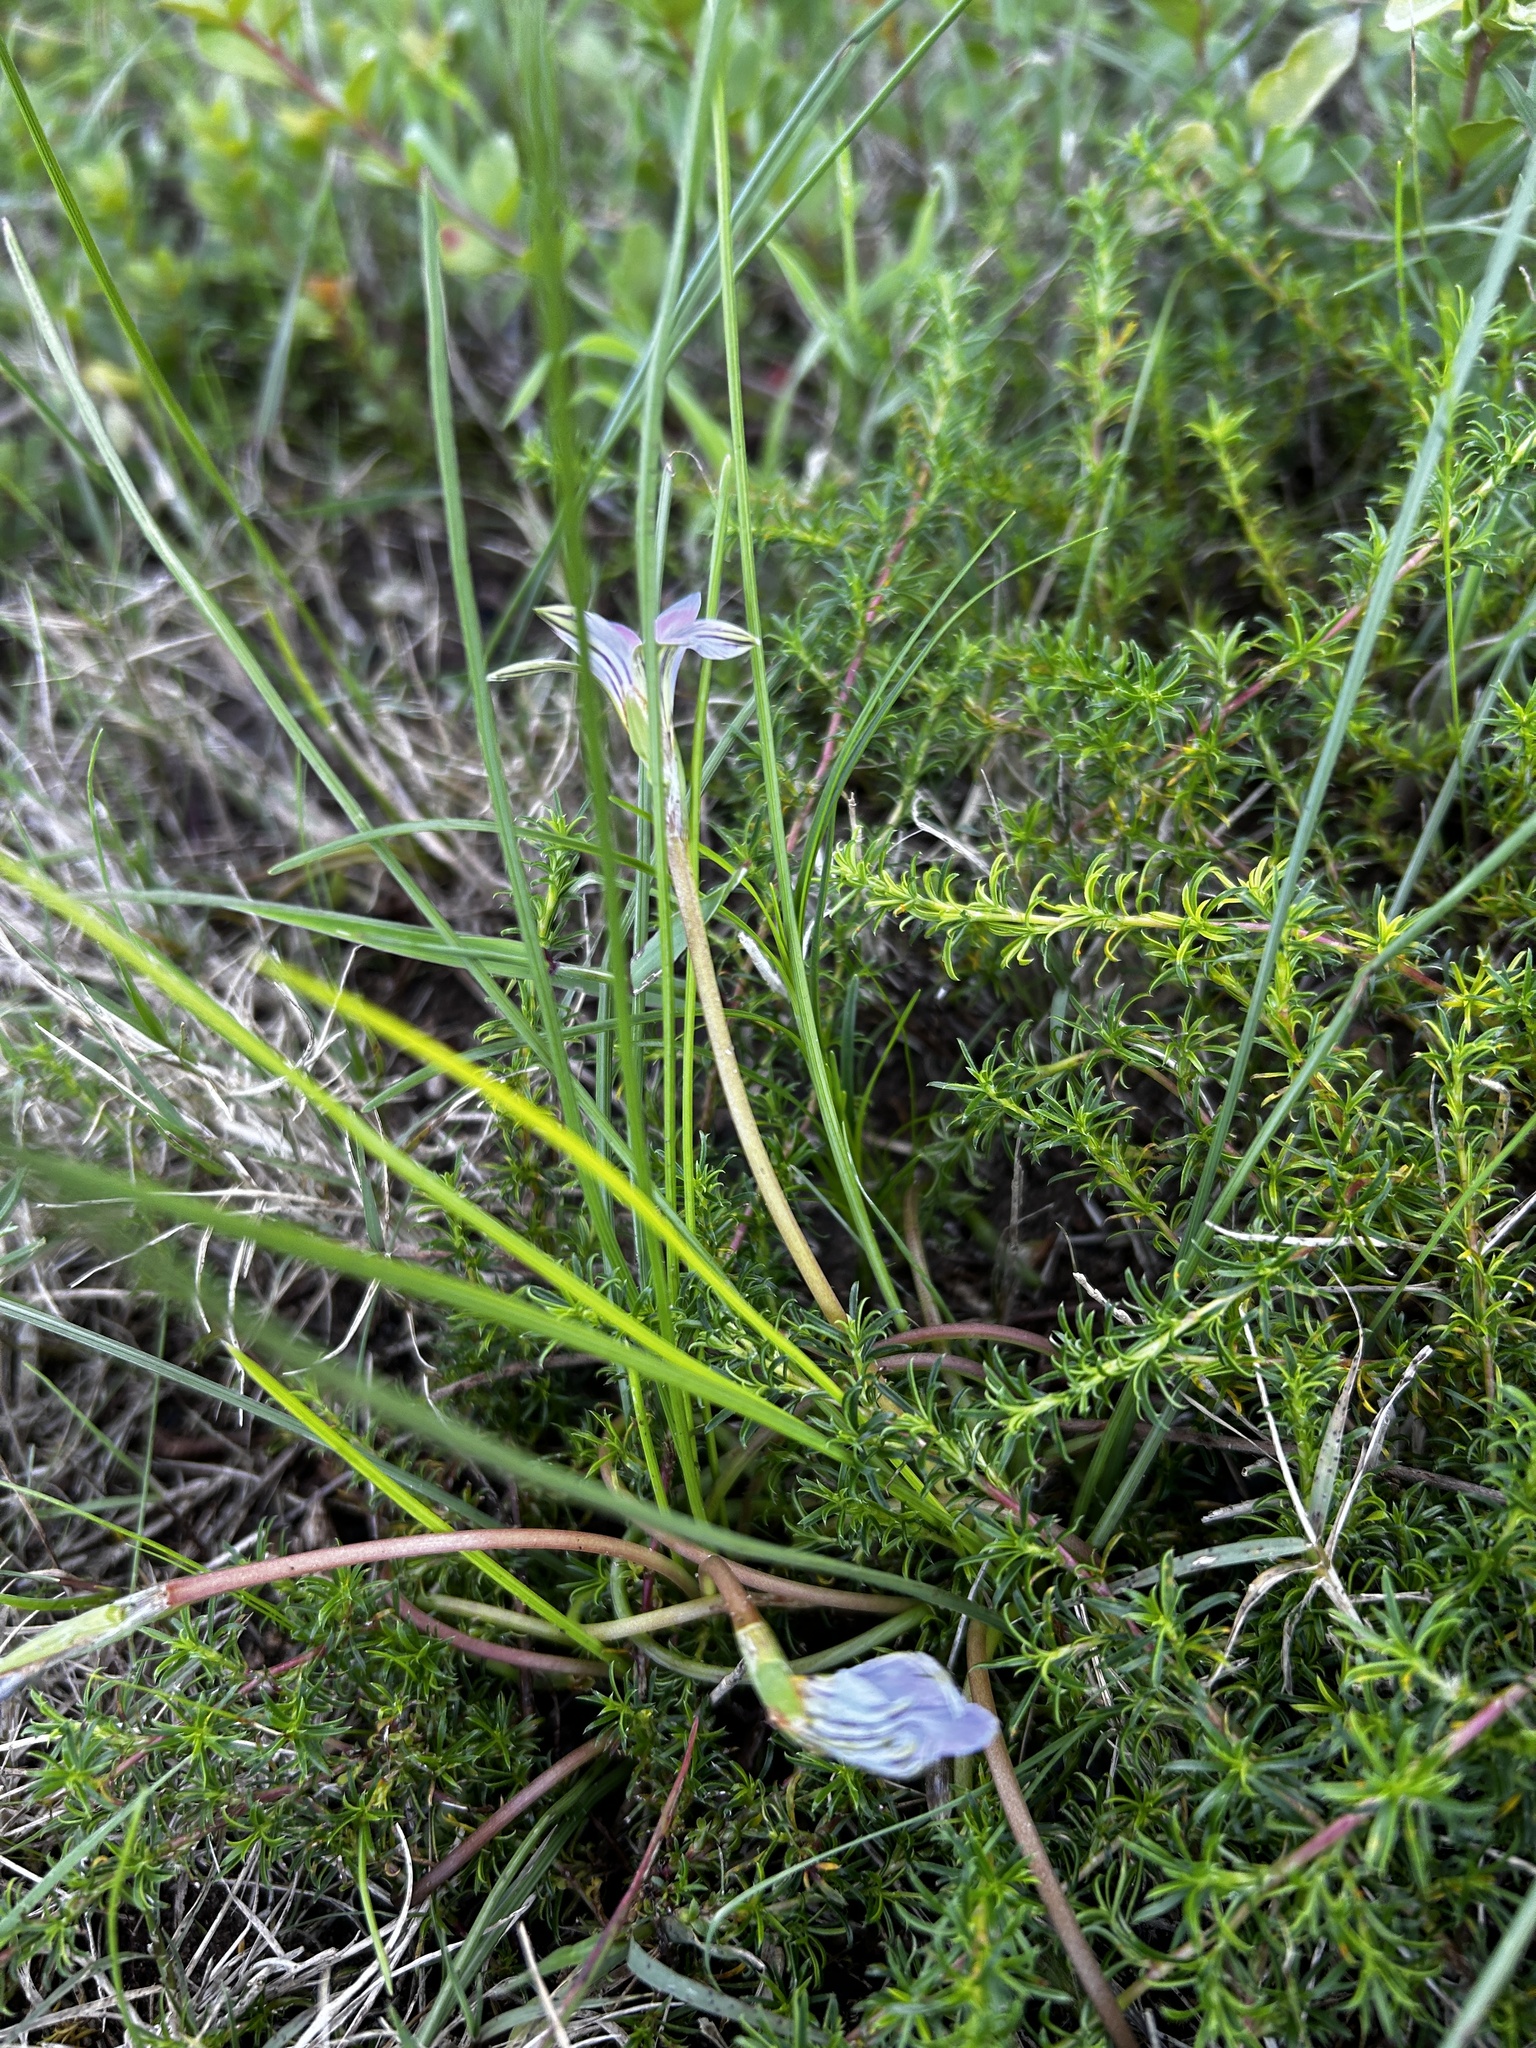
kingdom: Plantae
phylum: Tracheophyta
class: Liliopsida
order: Asparagales
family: Iridaceae
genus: Romulea
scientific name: Romulea rosea
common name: Oniongrass
